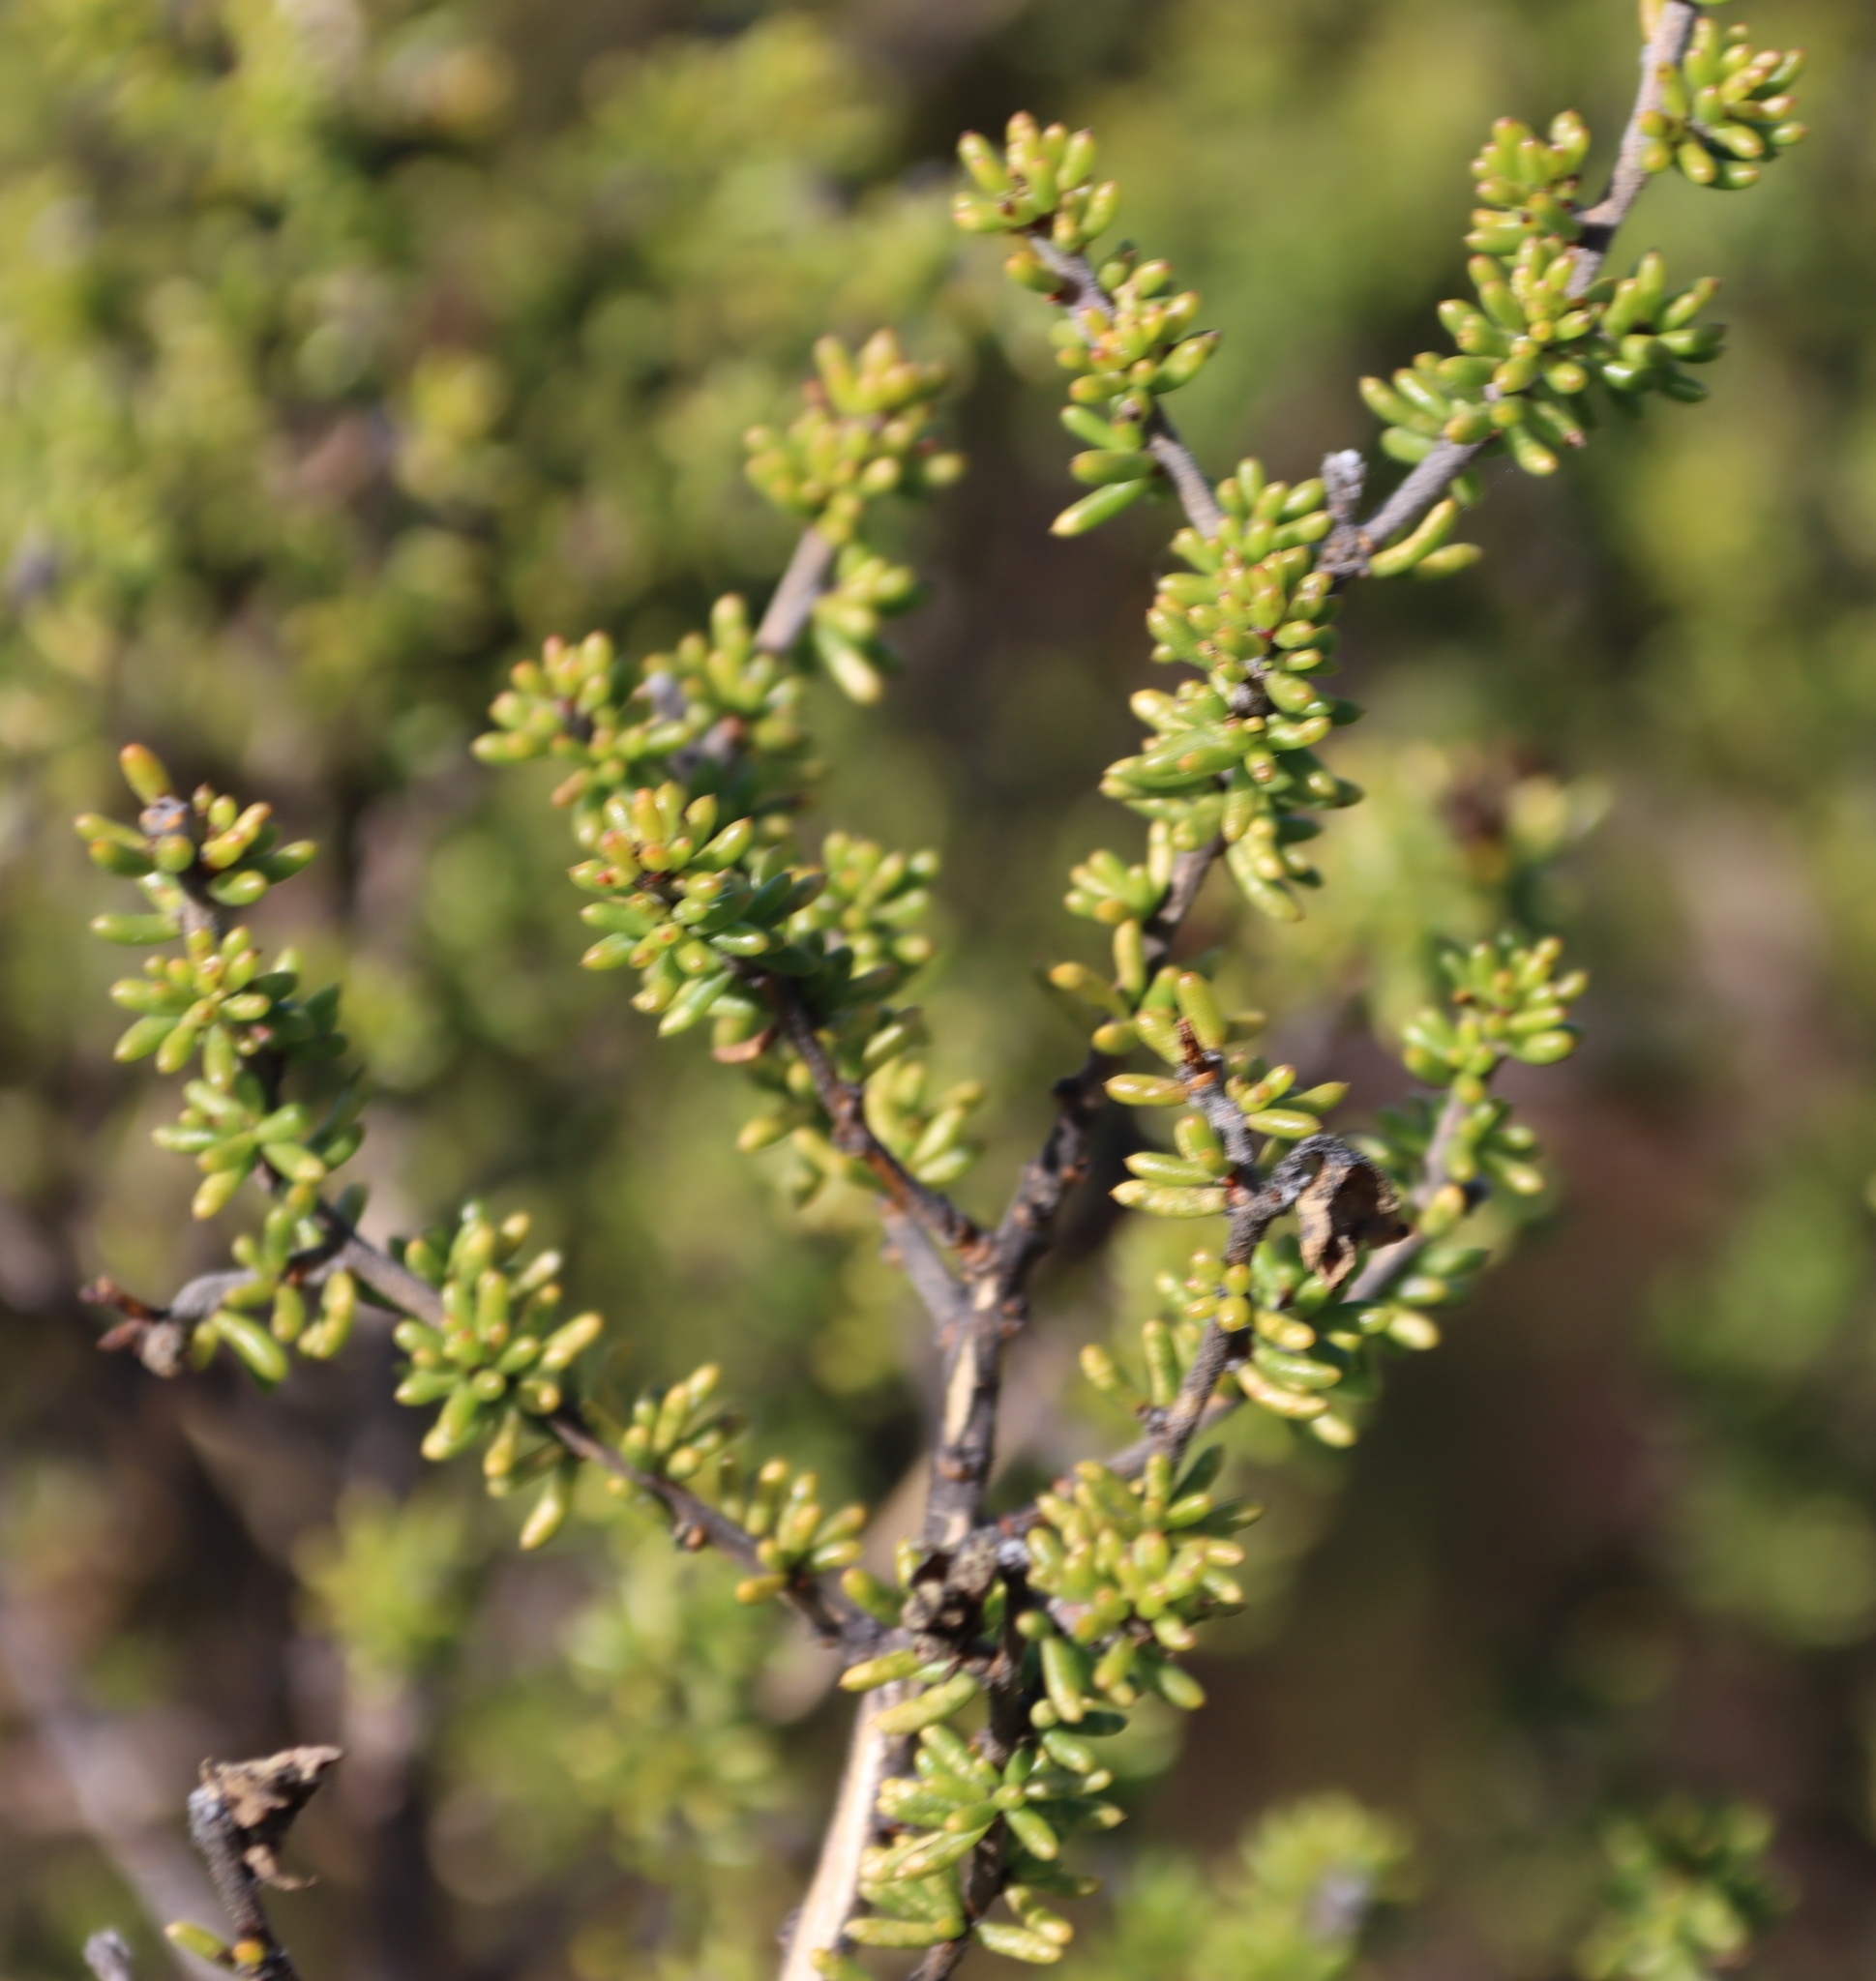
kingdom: Plantae
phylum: Tracheophyta
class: Magnoliopsida
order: Fabales
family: Fabaceae
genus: Aspalathus
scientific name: Aspalathus carnosa
